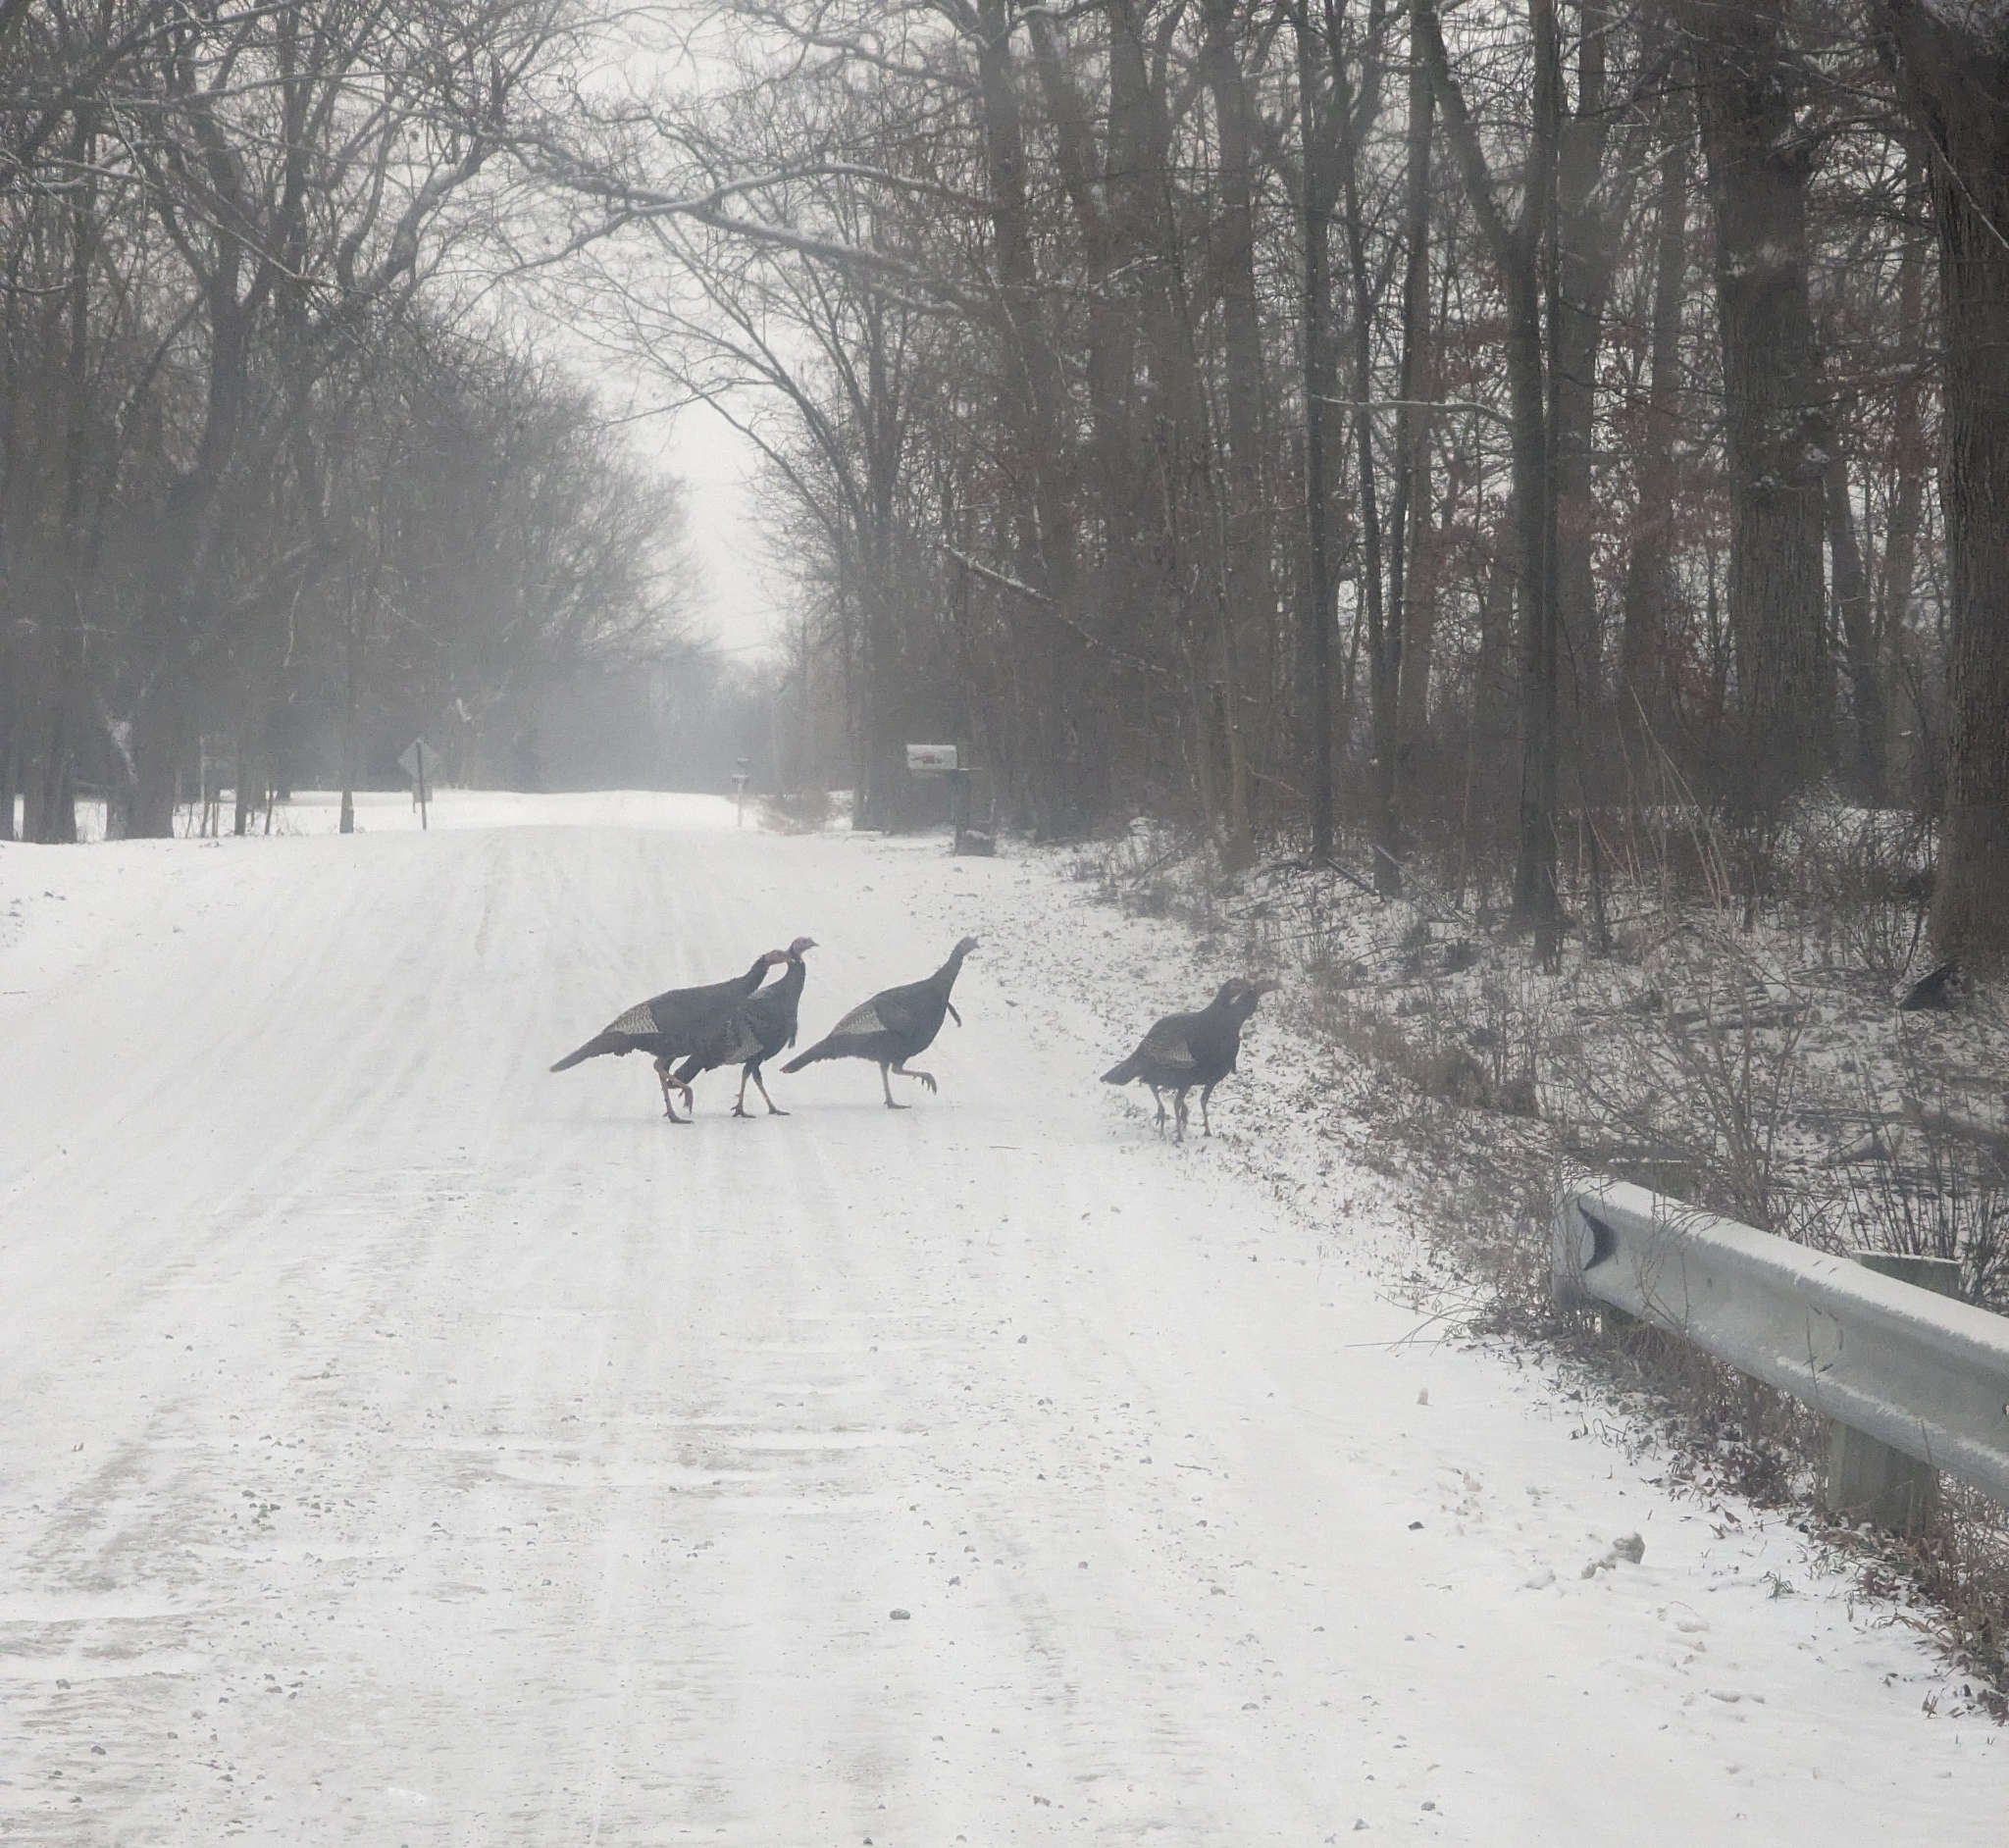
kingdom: Animalia
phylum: Chordata
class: Aves
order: Galliformes
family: Phasianidae
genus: Meleagris
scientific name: Meleagris gallopavo
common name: Wild turkey
